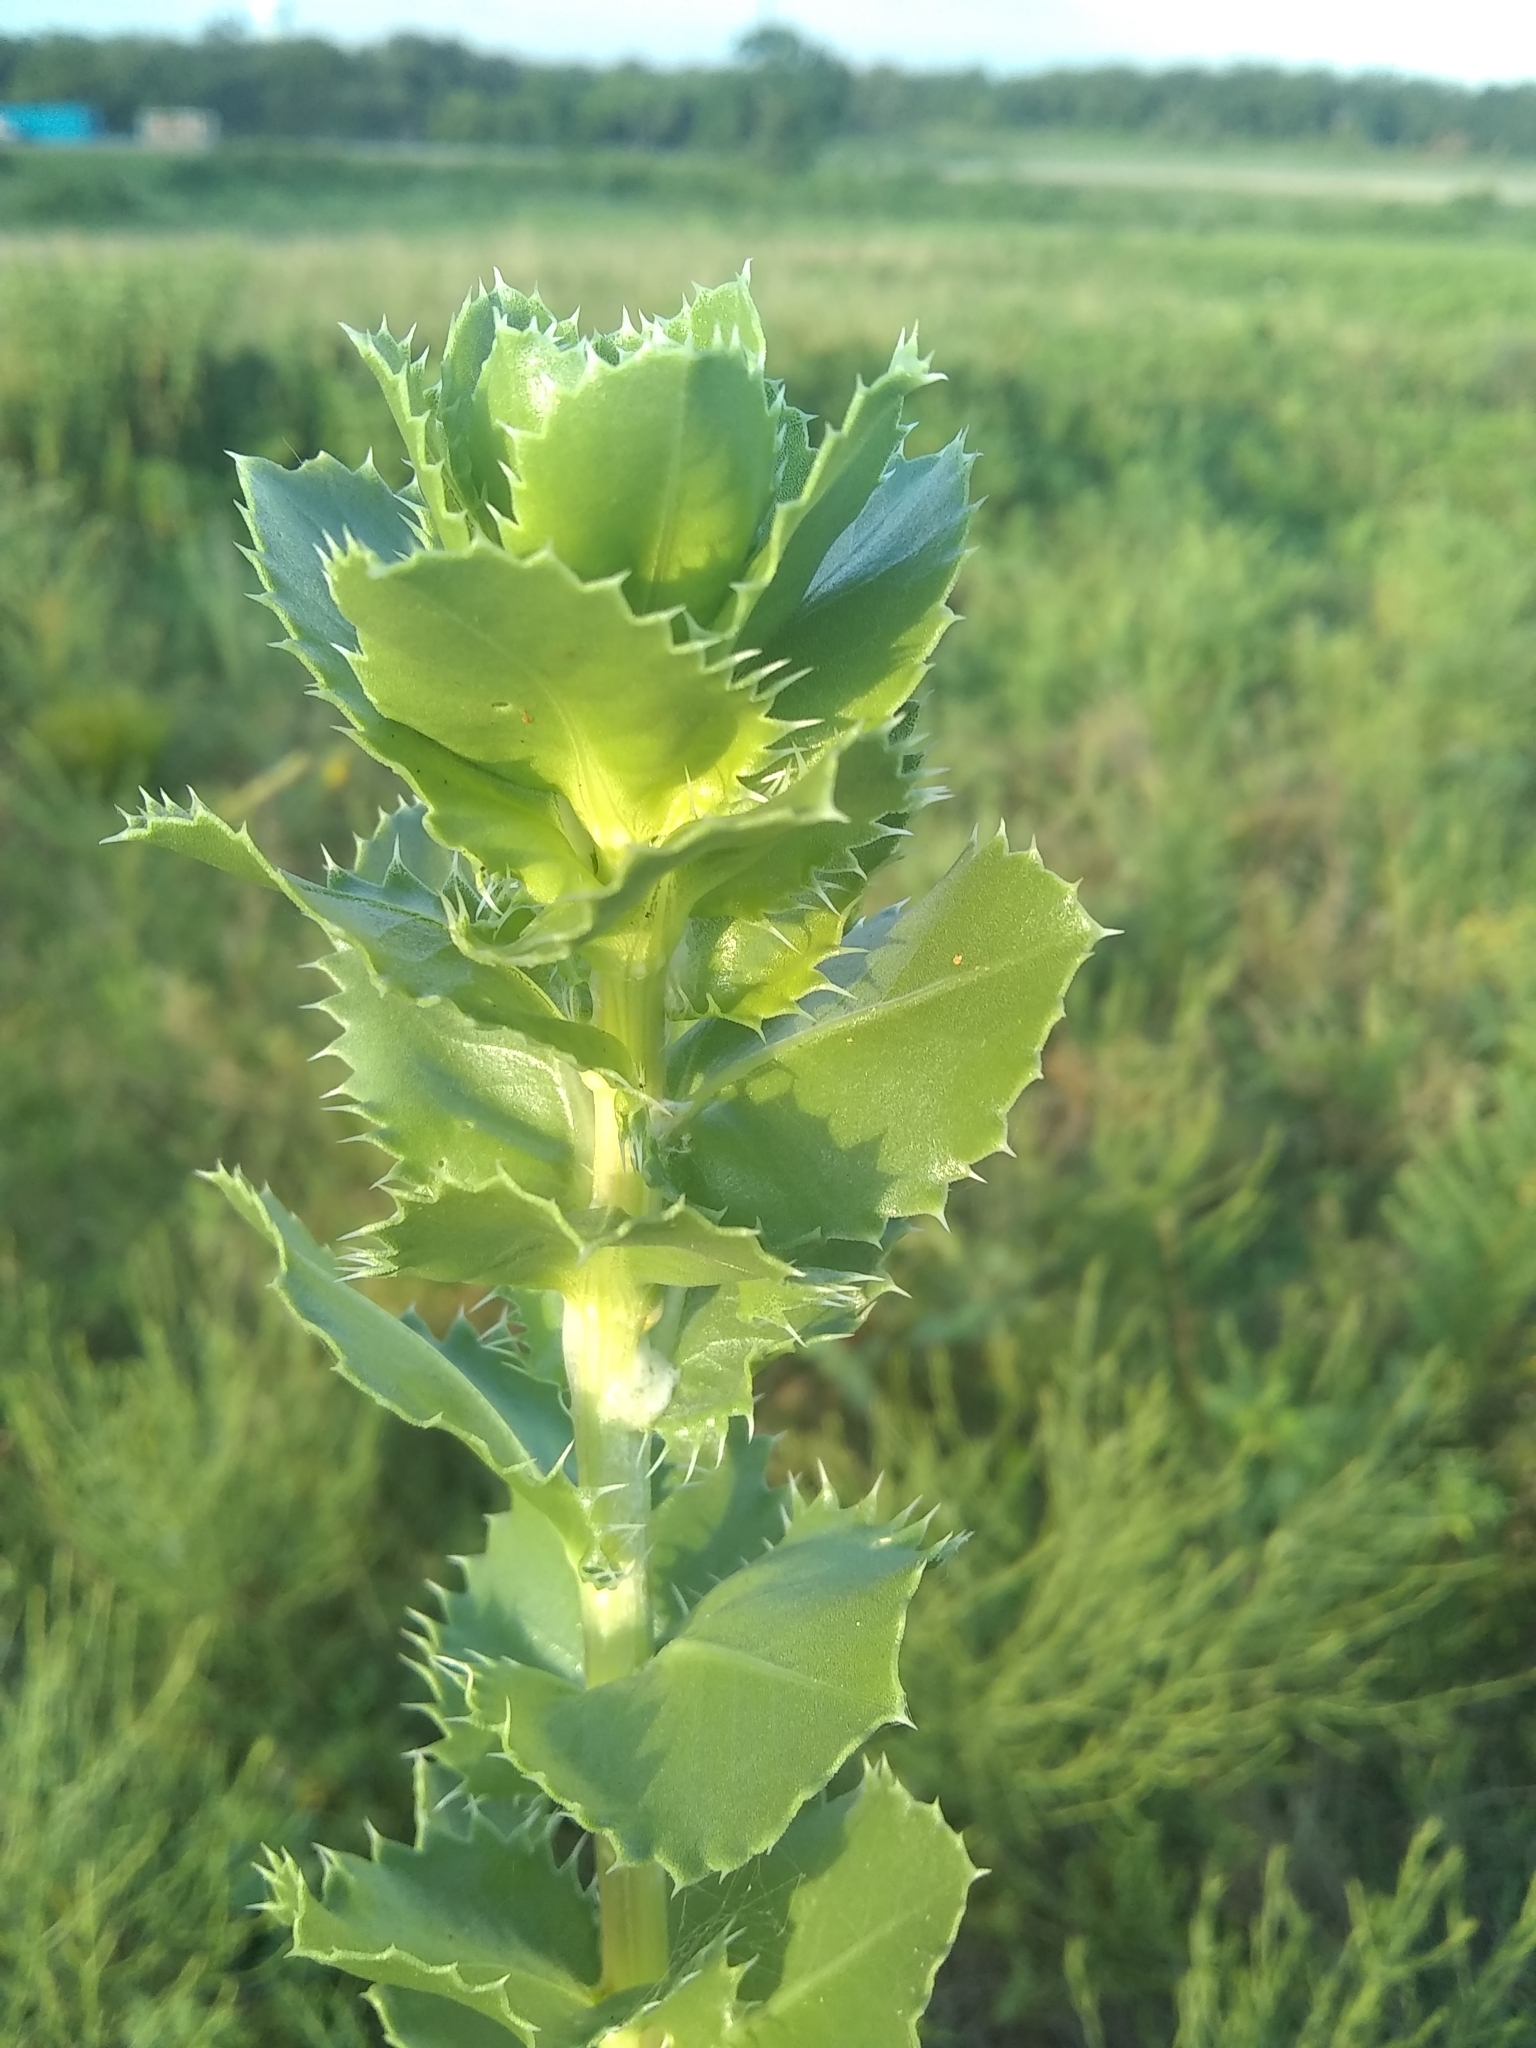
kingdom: Plantae
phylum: Tracheophyta
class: Magnoliopsida
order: Asterales
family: Asteraceae
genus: Grindelia
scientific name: Grindelia ciliata
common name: Goldenweed
